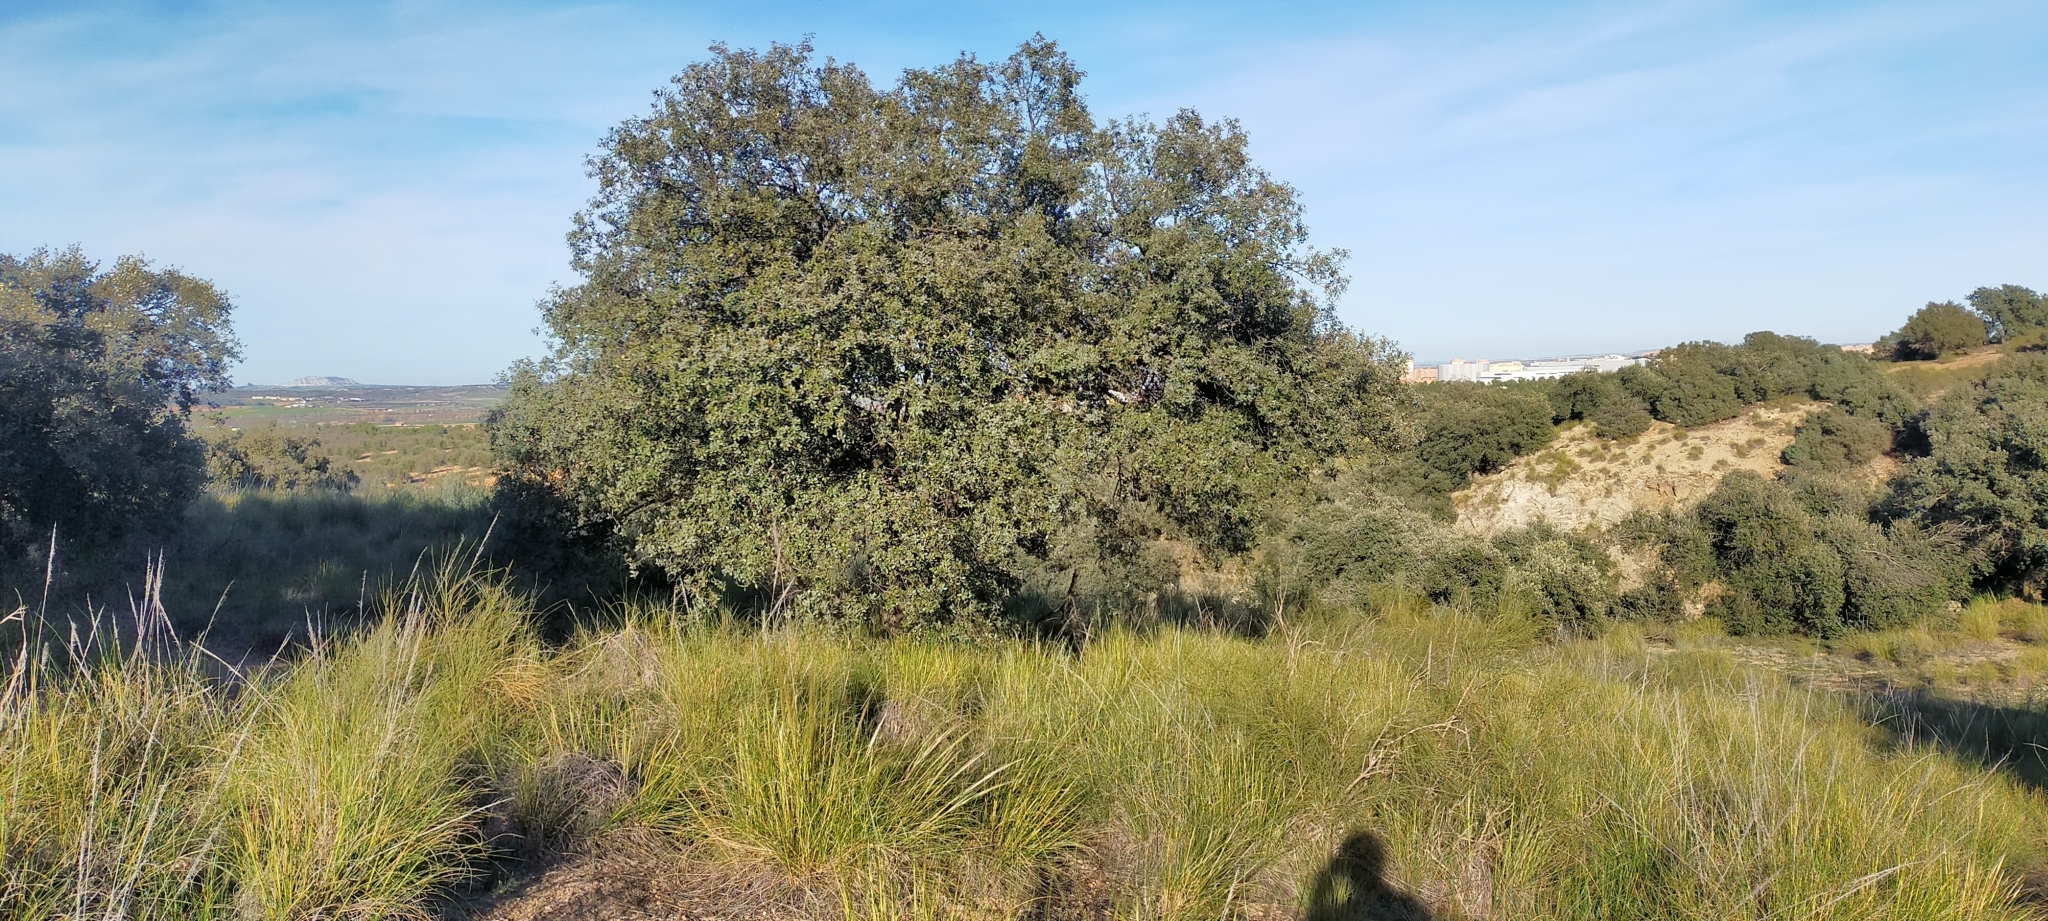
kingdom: Plantae
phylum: Tracheophyta
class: Magnoliopsida
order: Fagales
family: Fagaceae
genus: Quercus
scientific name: Quercus rotundifolia
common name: Holm oak
